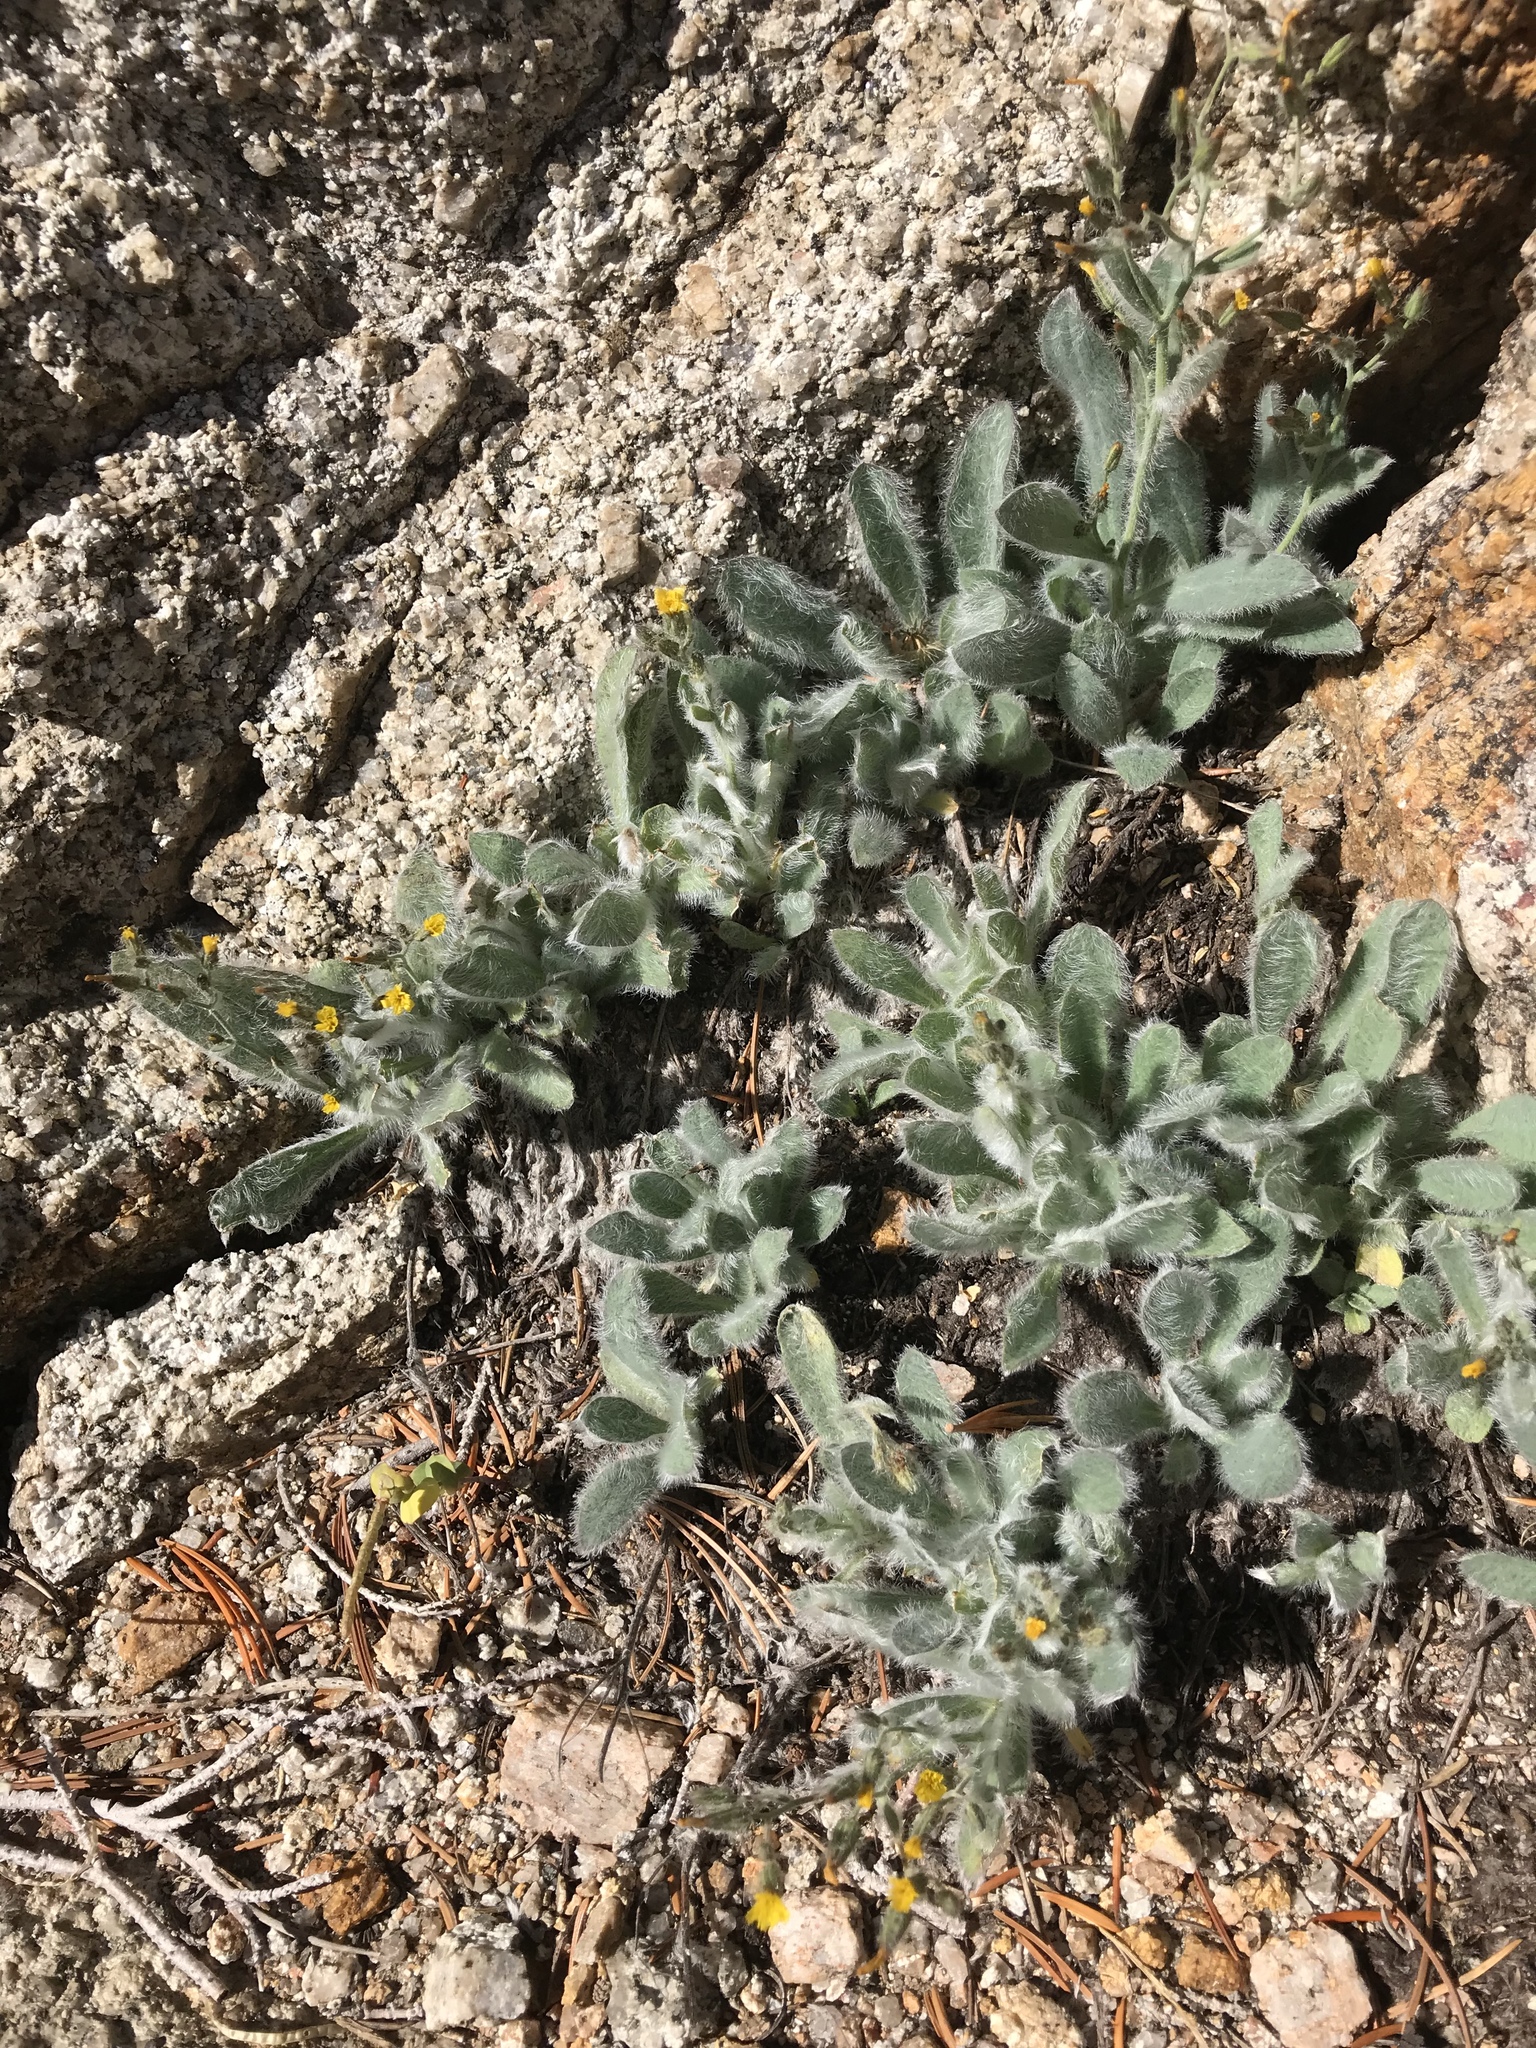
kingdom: Plantae
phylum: Tracheophyta
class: Magnoliopsida
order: Asterales
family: Asteraceae
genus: Hieracium
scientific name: Hieracium horridum
